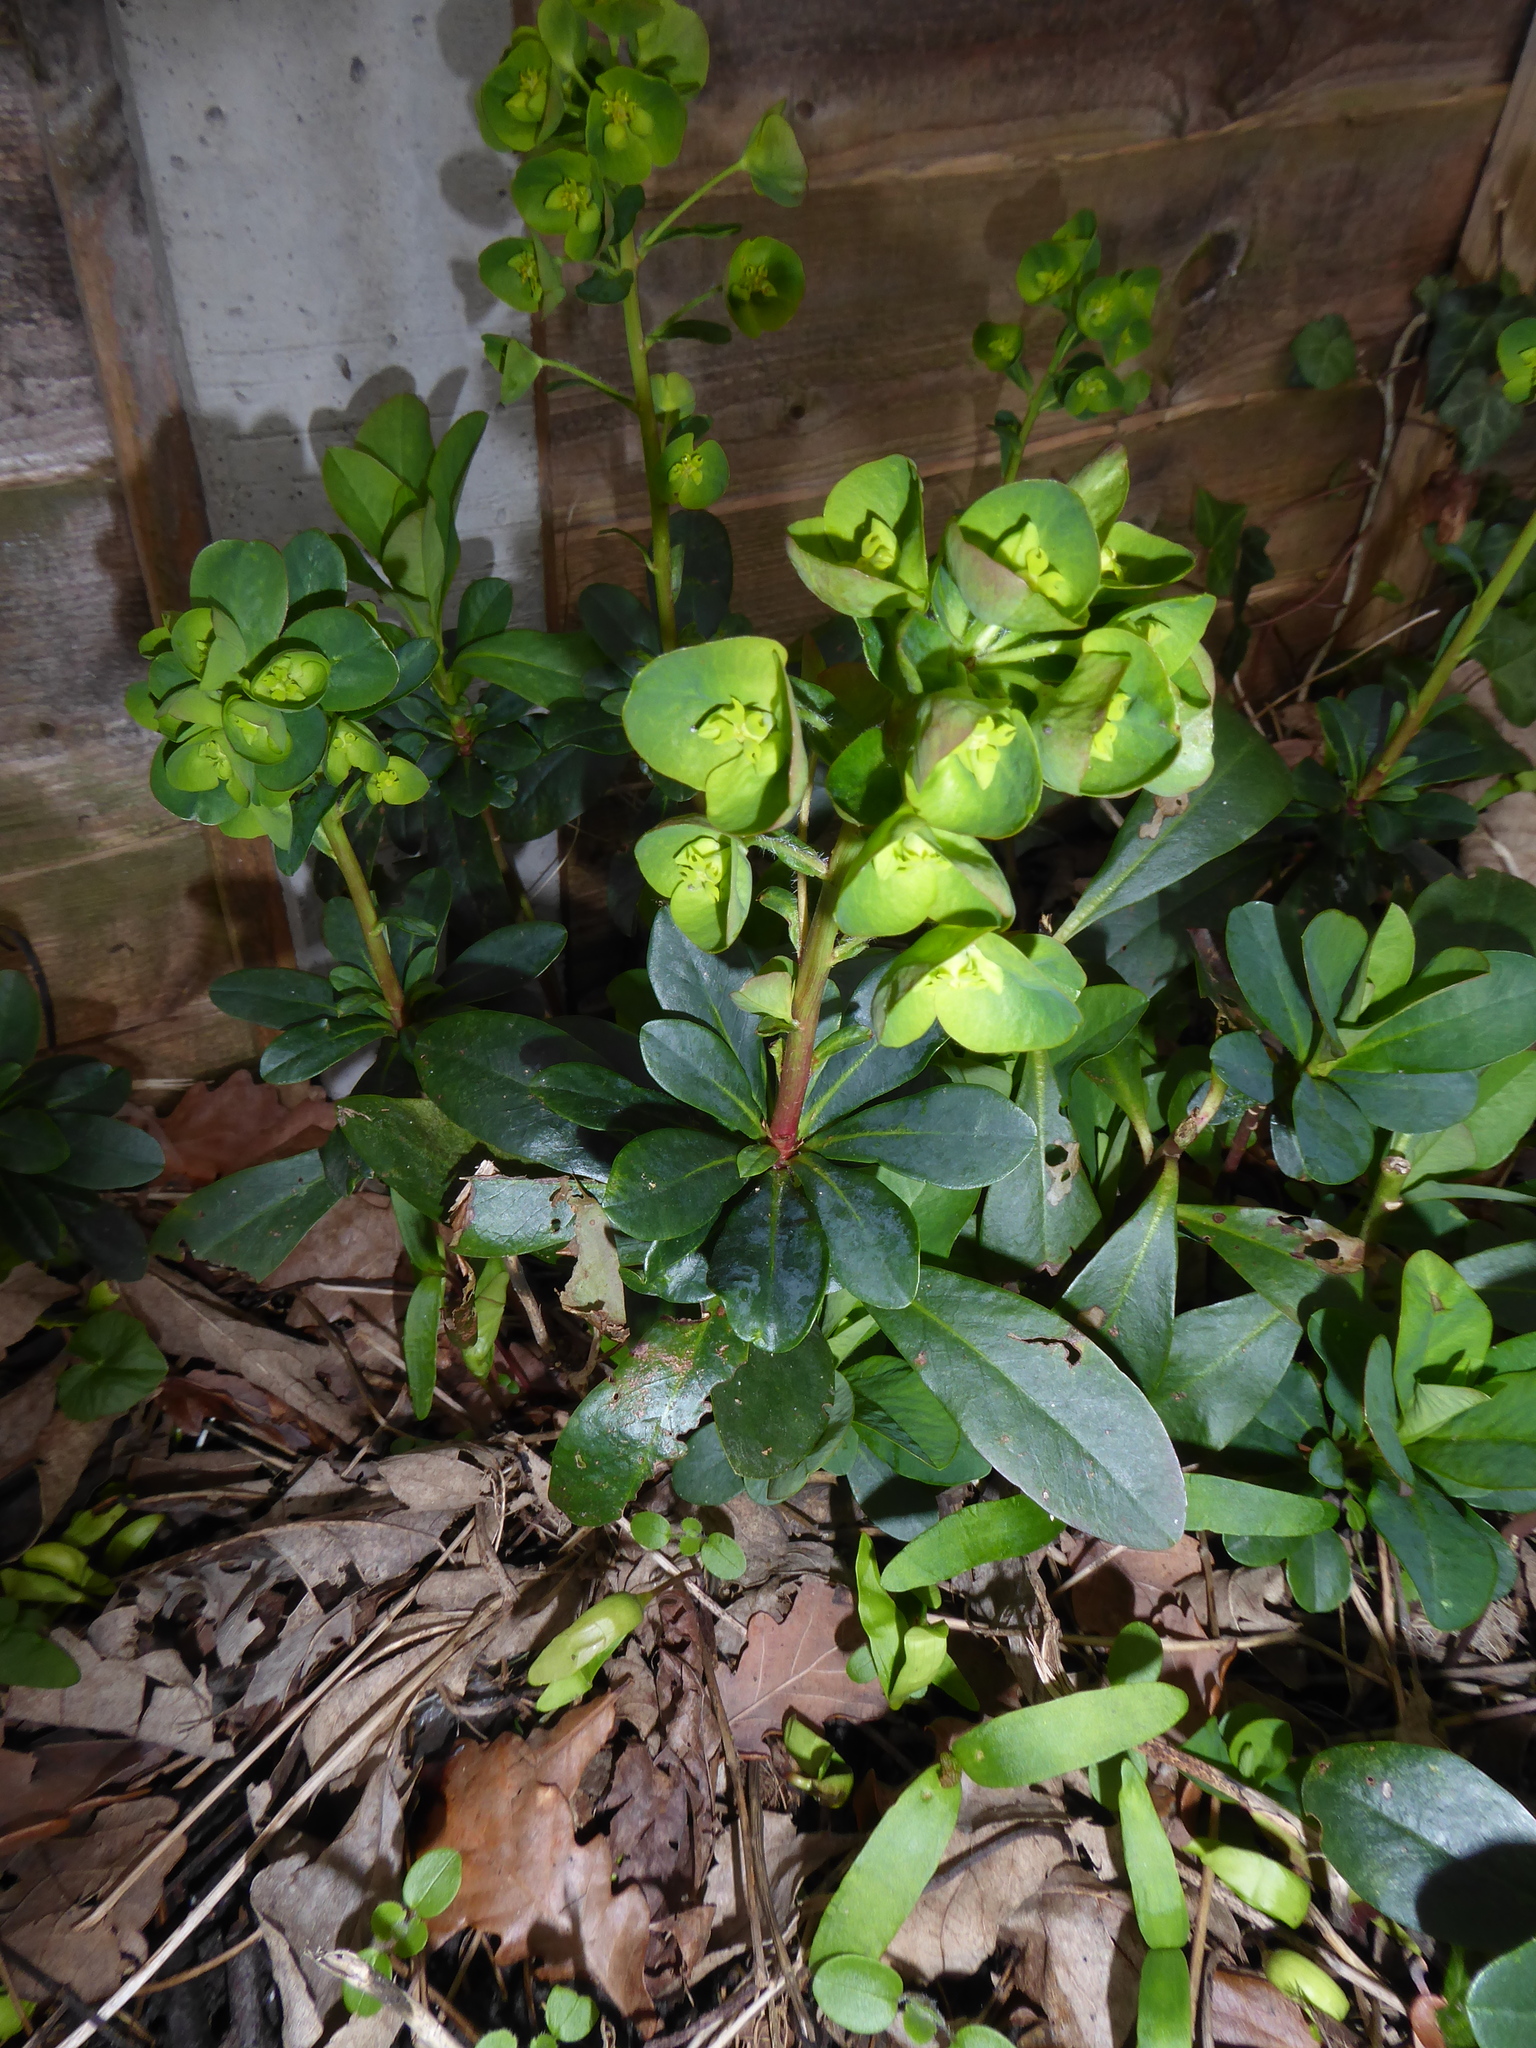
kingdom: Plantae
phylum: Tracheophyta
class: Magnoliopsida
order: Malpighiales
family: Euphorbiaceae
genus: Euphorbia
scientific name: Euphorbia amygdaloides
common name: Wood spurge
